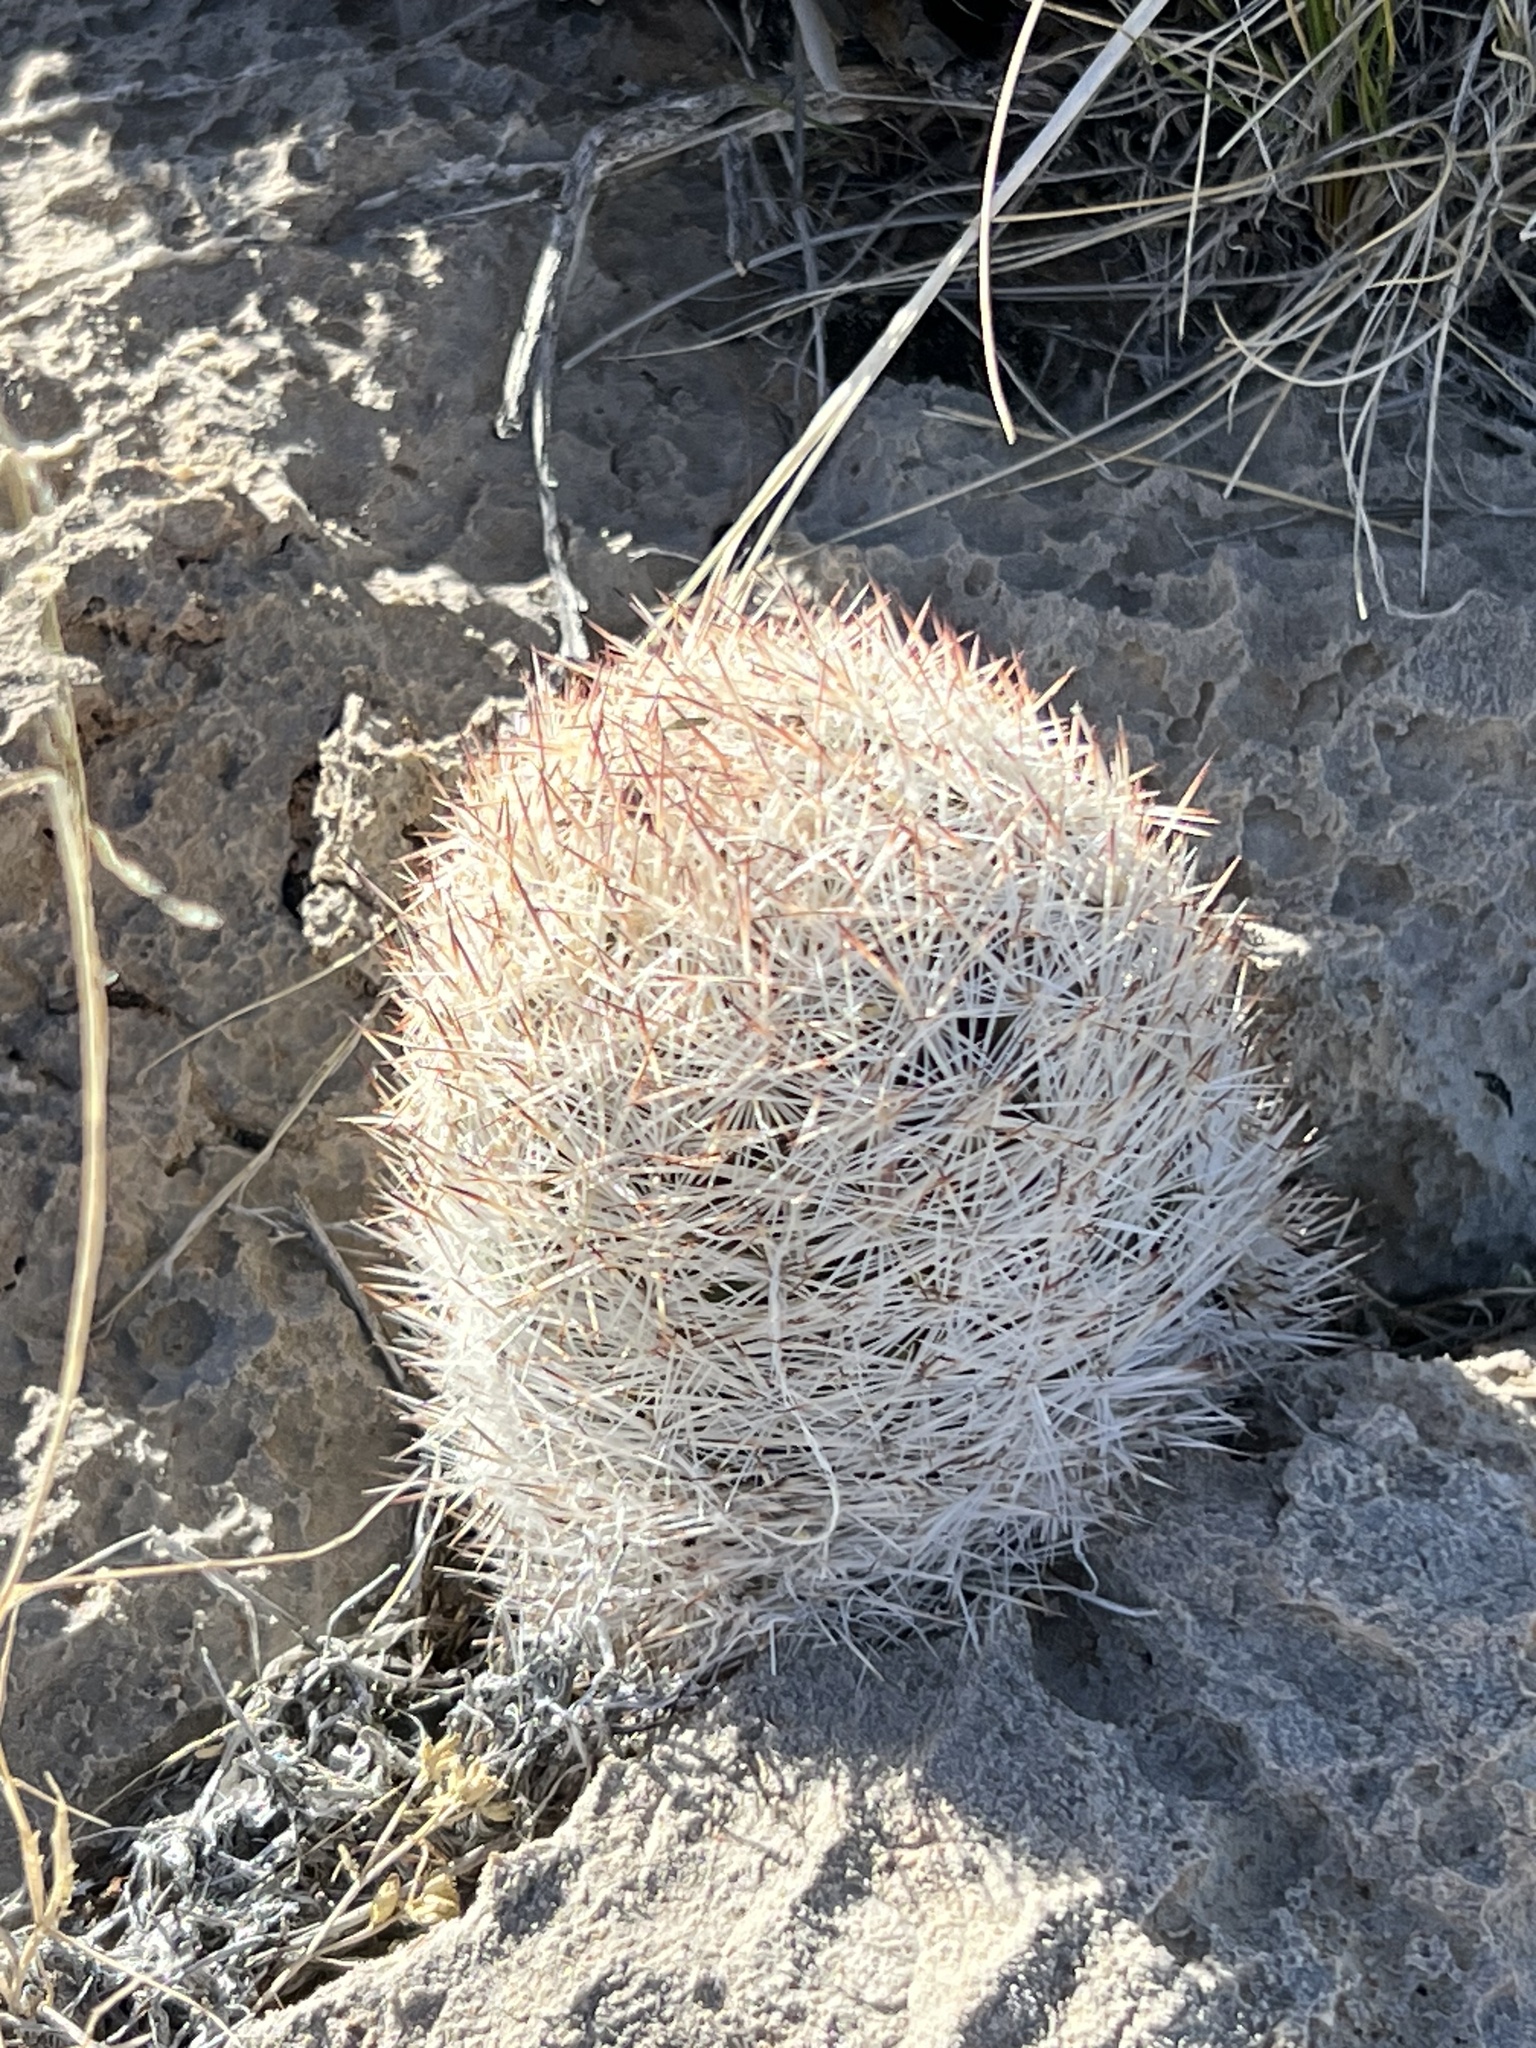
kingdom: Plantae
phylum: Tracheophyta
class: Magnoliopsida
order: Caryophyllales
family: Cactaceae
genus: Pelecyphora
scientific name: Pelecyphora dasyacantha
